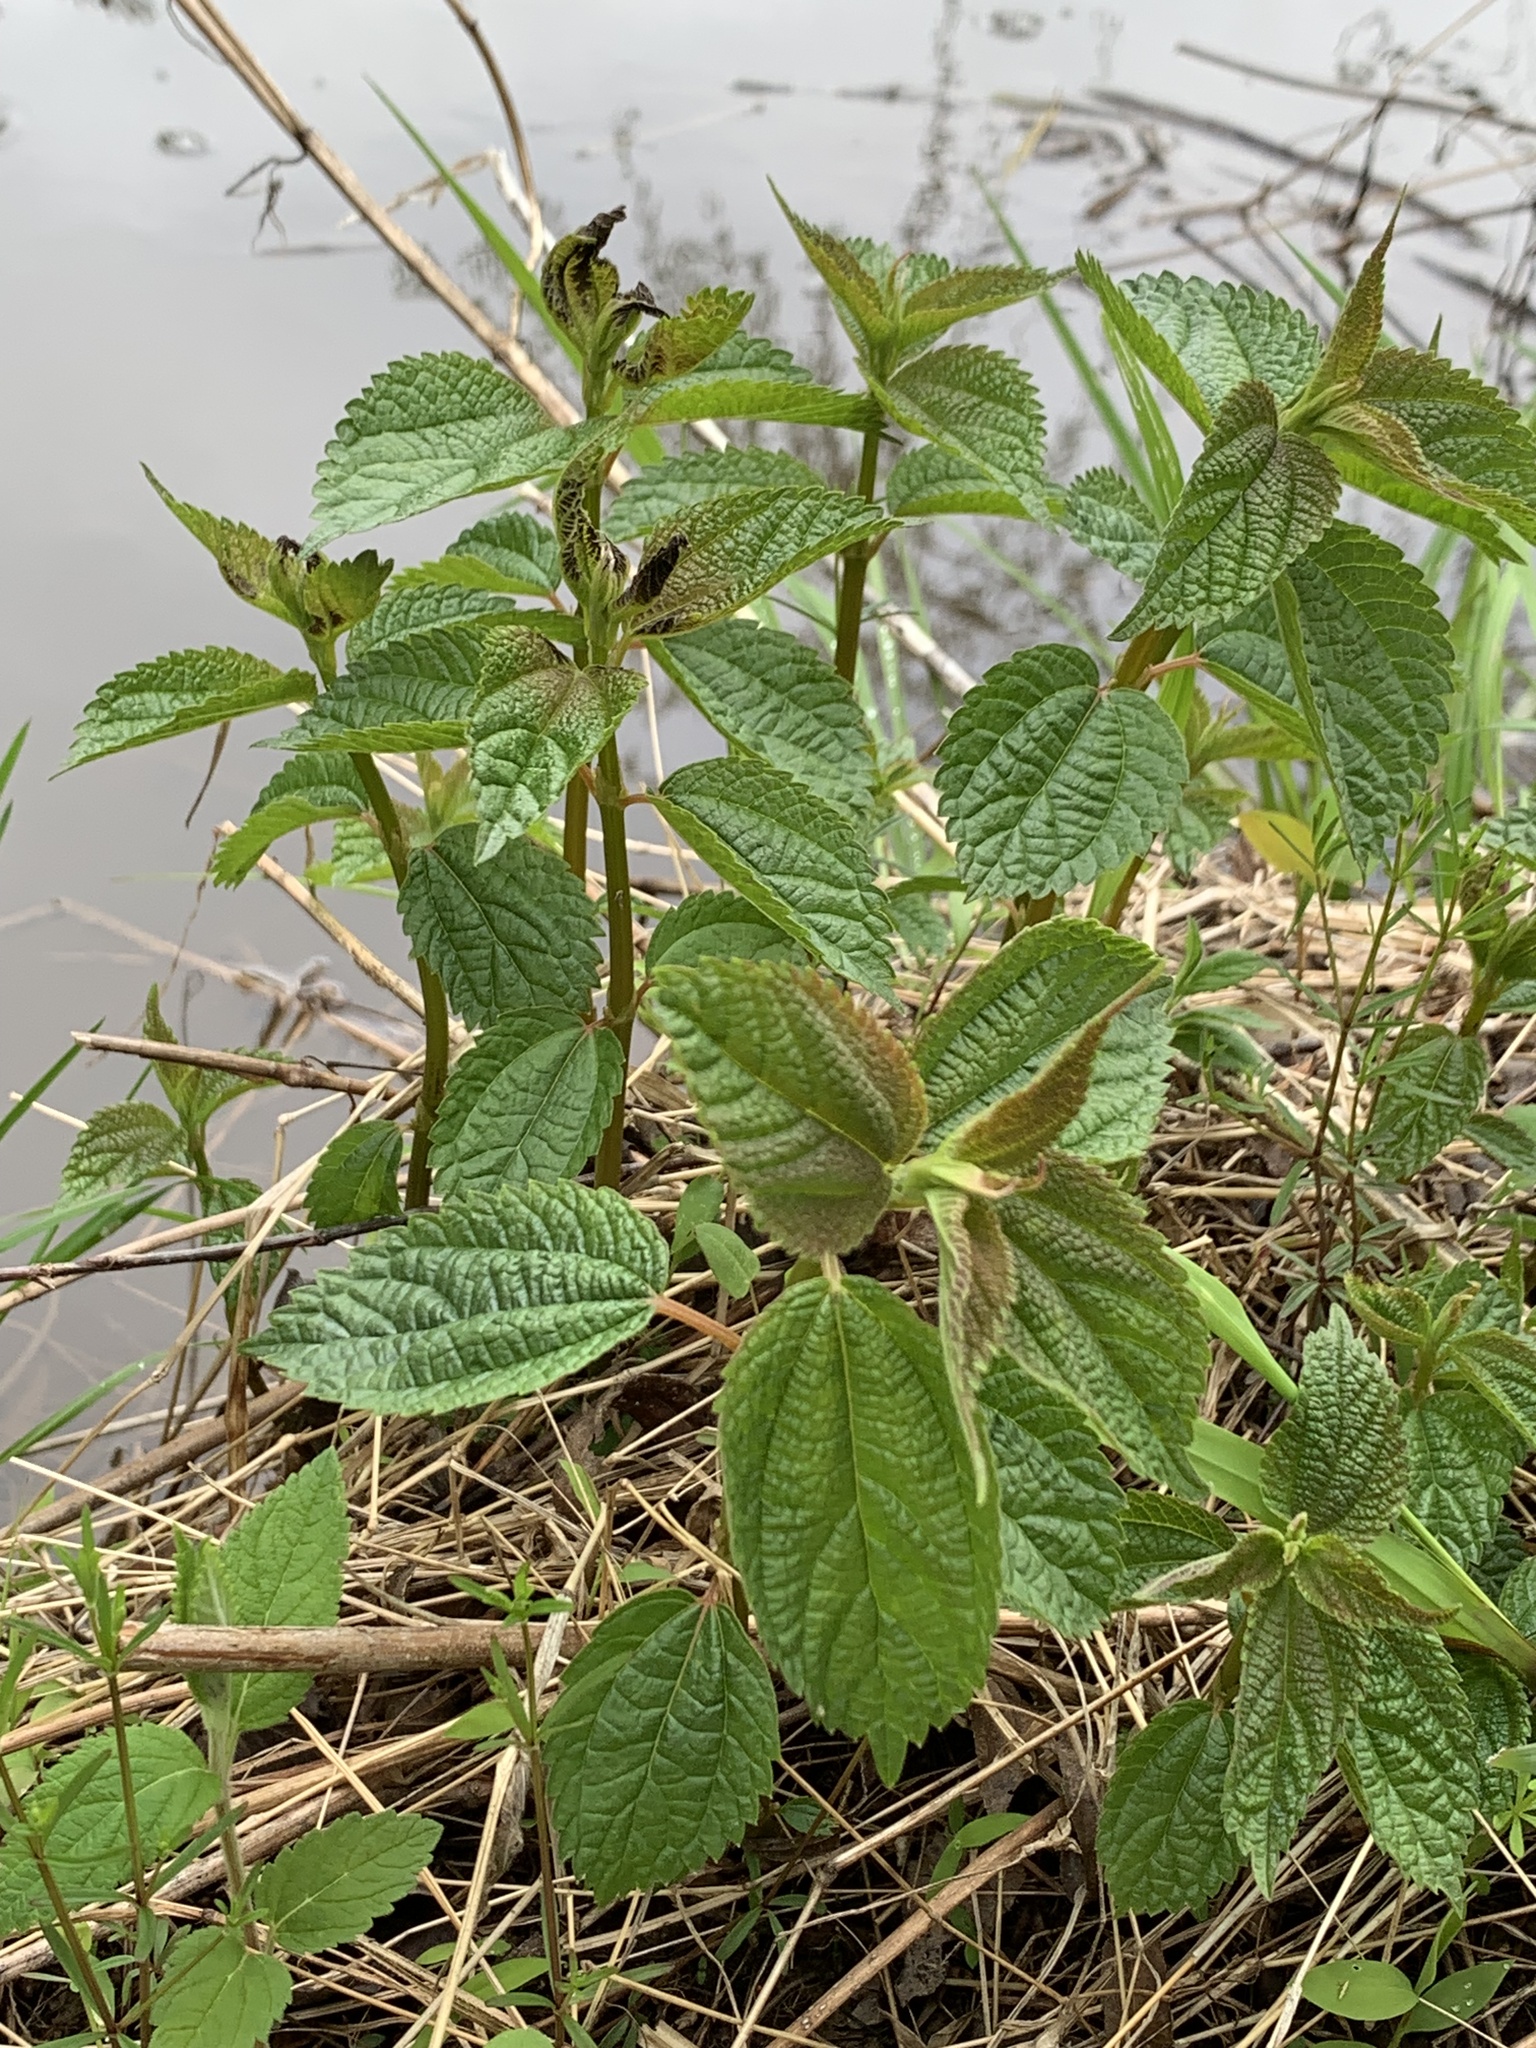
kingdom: Plantae
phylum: Tracheophyta
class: Magnoliopsida
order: Rosales
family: Urticaceae
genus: Boehmeria
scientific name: Boehmeria cylindrica
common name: Bog-hemp
